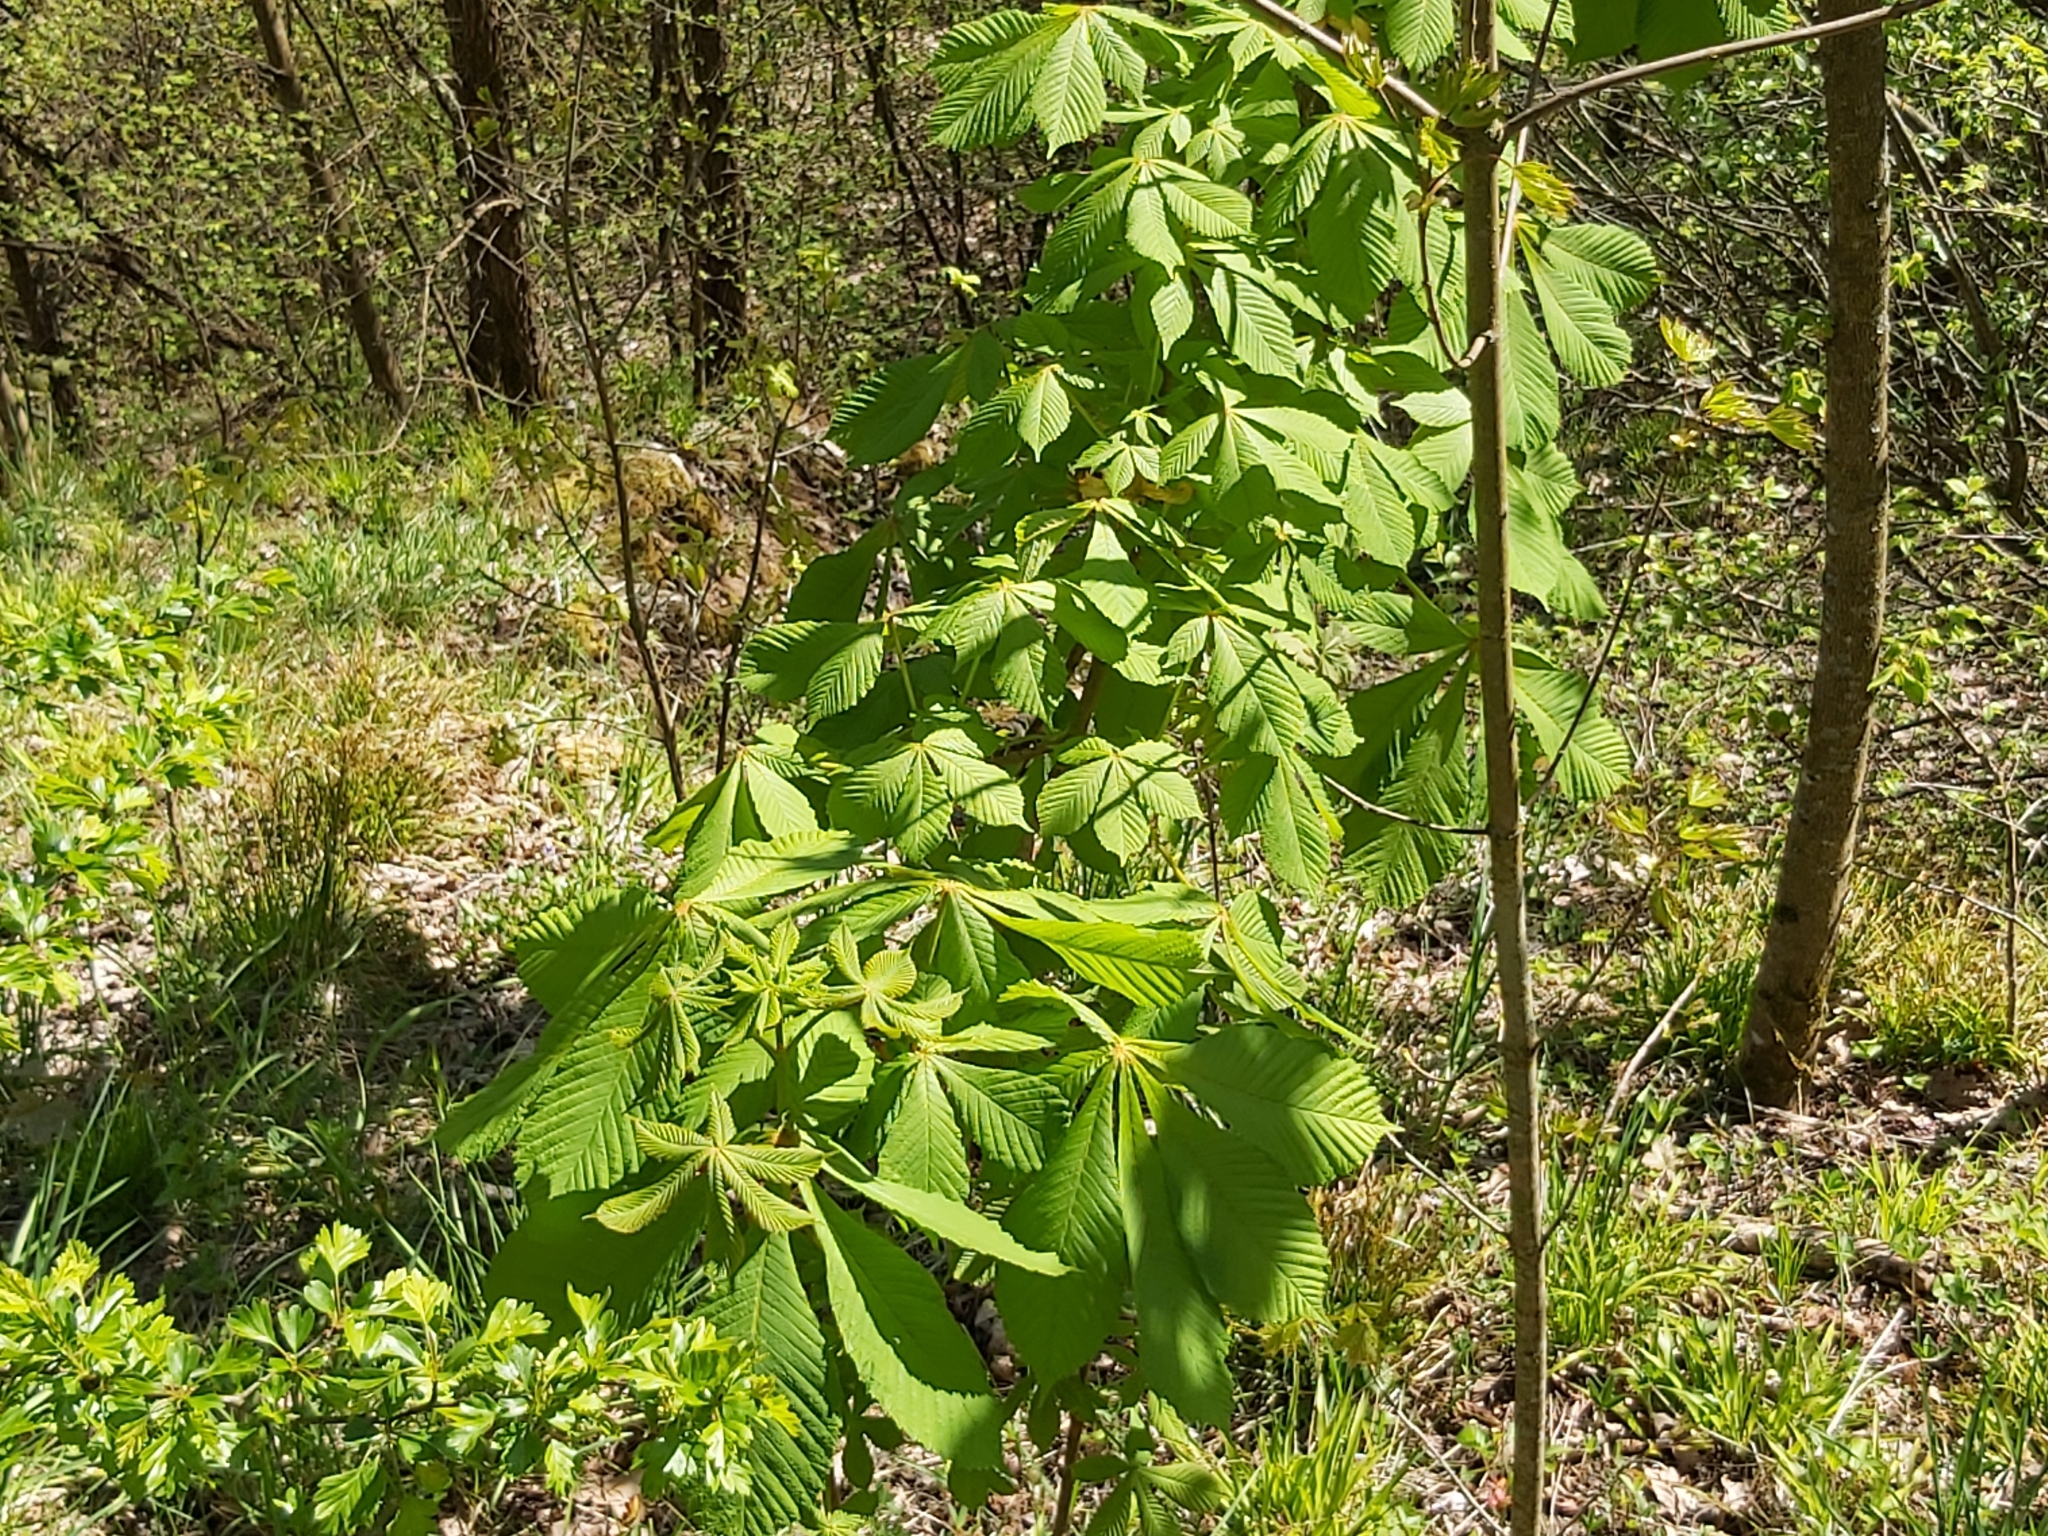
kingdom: Plantae
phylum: Tracheophyta
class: Magnoliopsida
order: Sapindales
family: Sapindaceae
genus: Aesculus
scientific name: Aesculus hippocastanum
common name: Horse-chestnut
